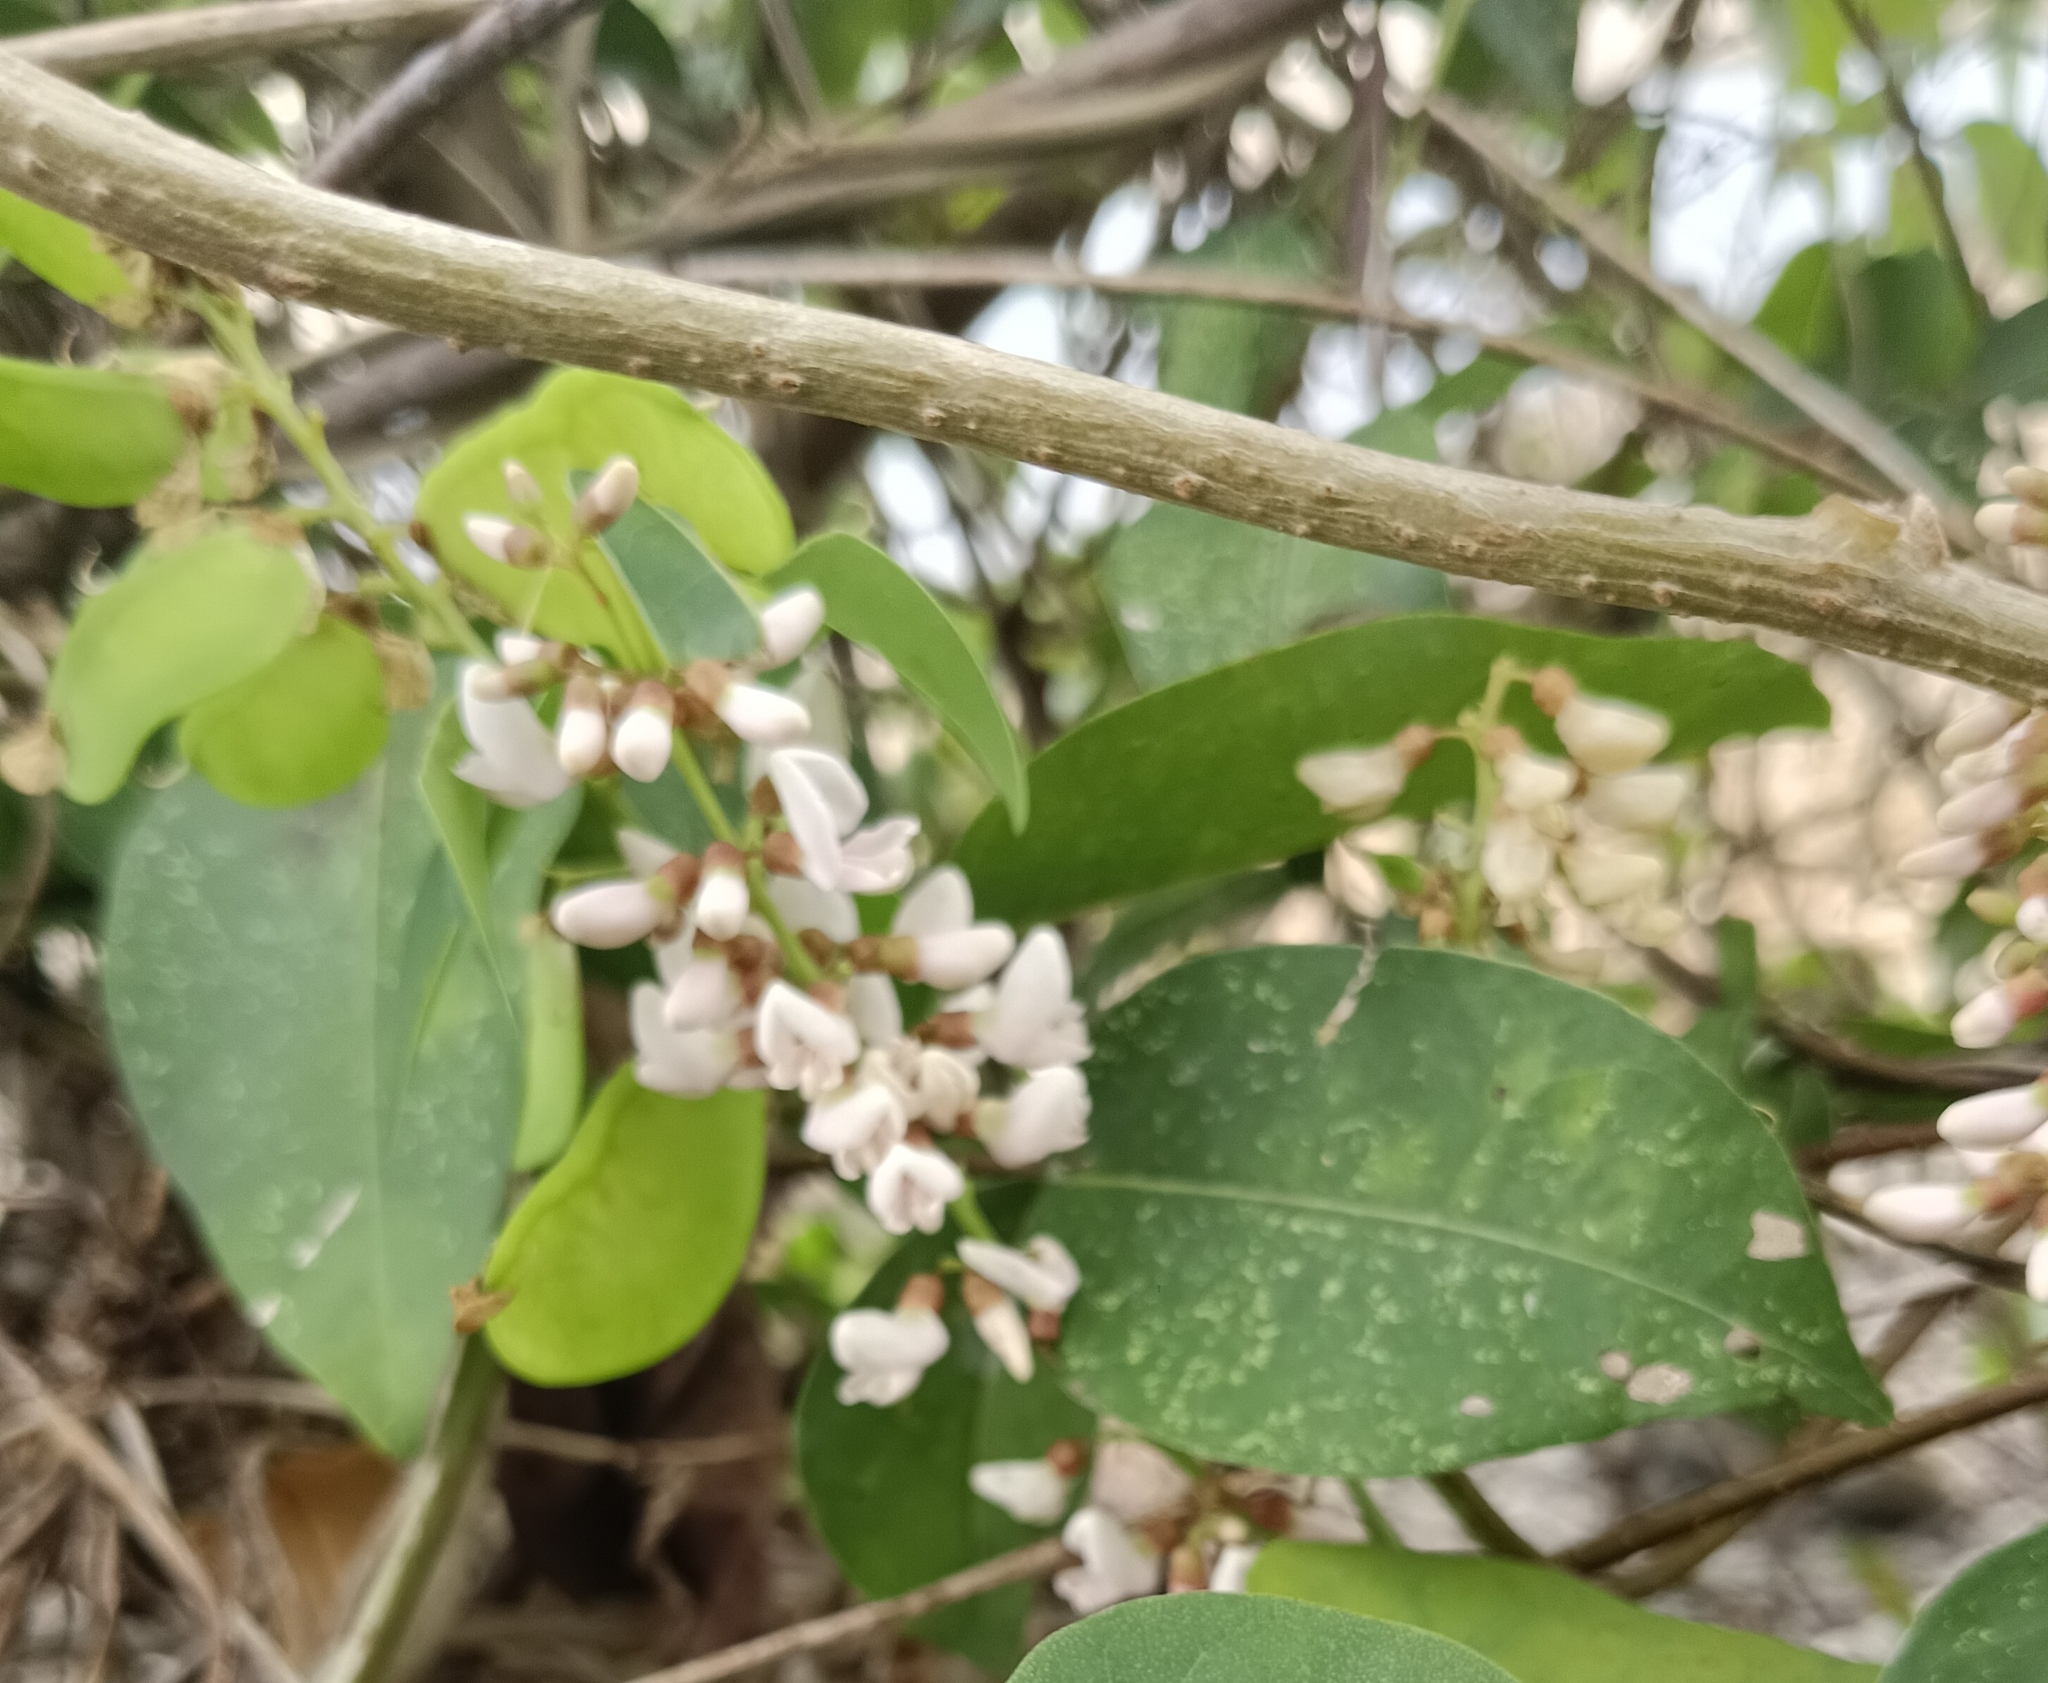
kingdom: Plantae
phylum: Tracheophyta
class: Magnoliopsida
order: Fabales
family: Fabaceae
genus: Derris
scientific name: Derris trifoliata
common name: Three-leaf derris
